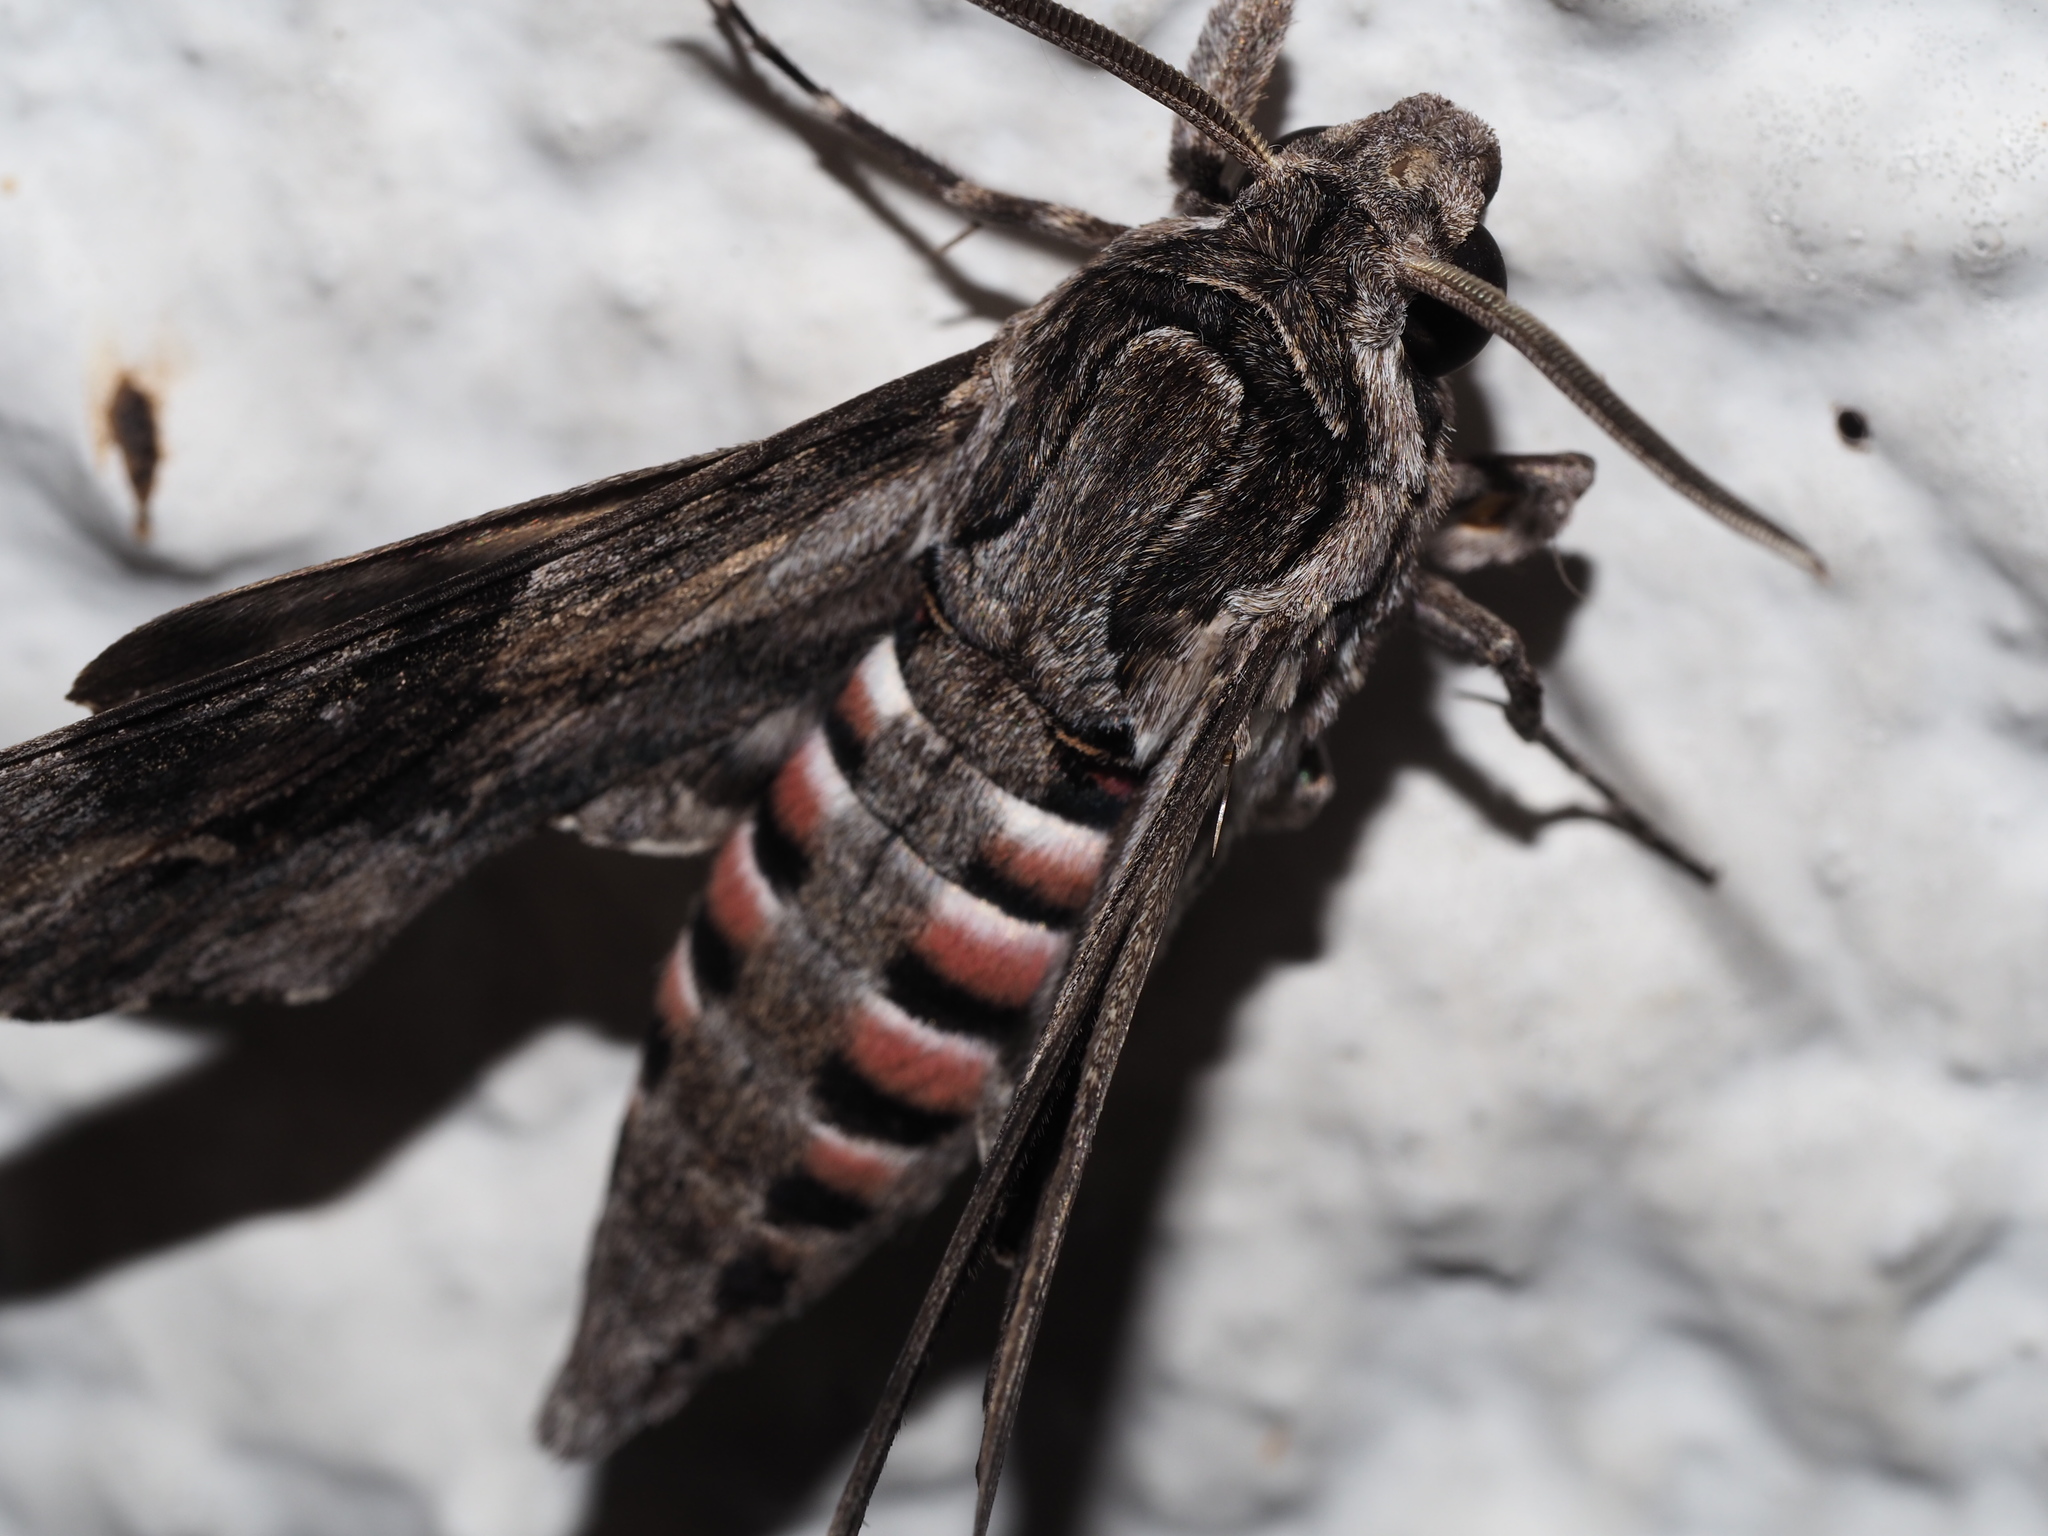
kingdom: Animalia
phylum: Arthropoda
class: Insecta
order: Lepidoptera
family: Sphingidae
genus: Agrius
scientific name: Agrius convolvuli
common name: Convolvulus hawkmoth
